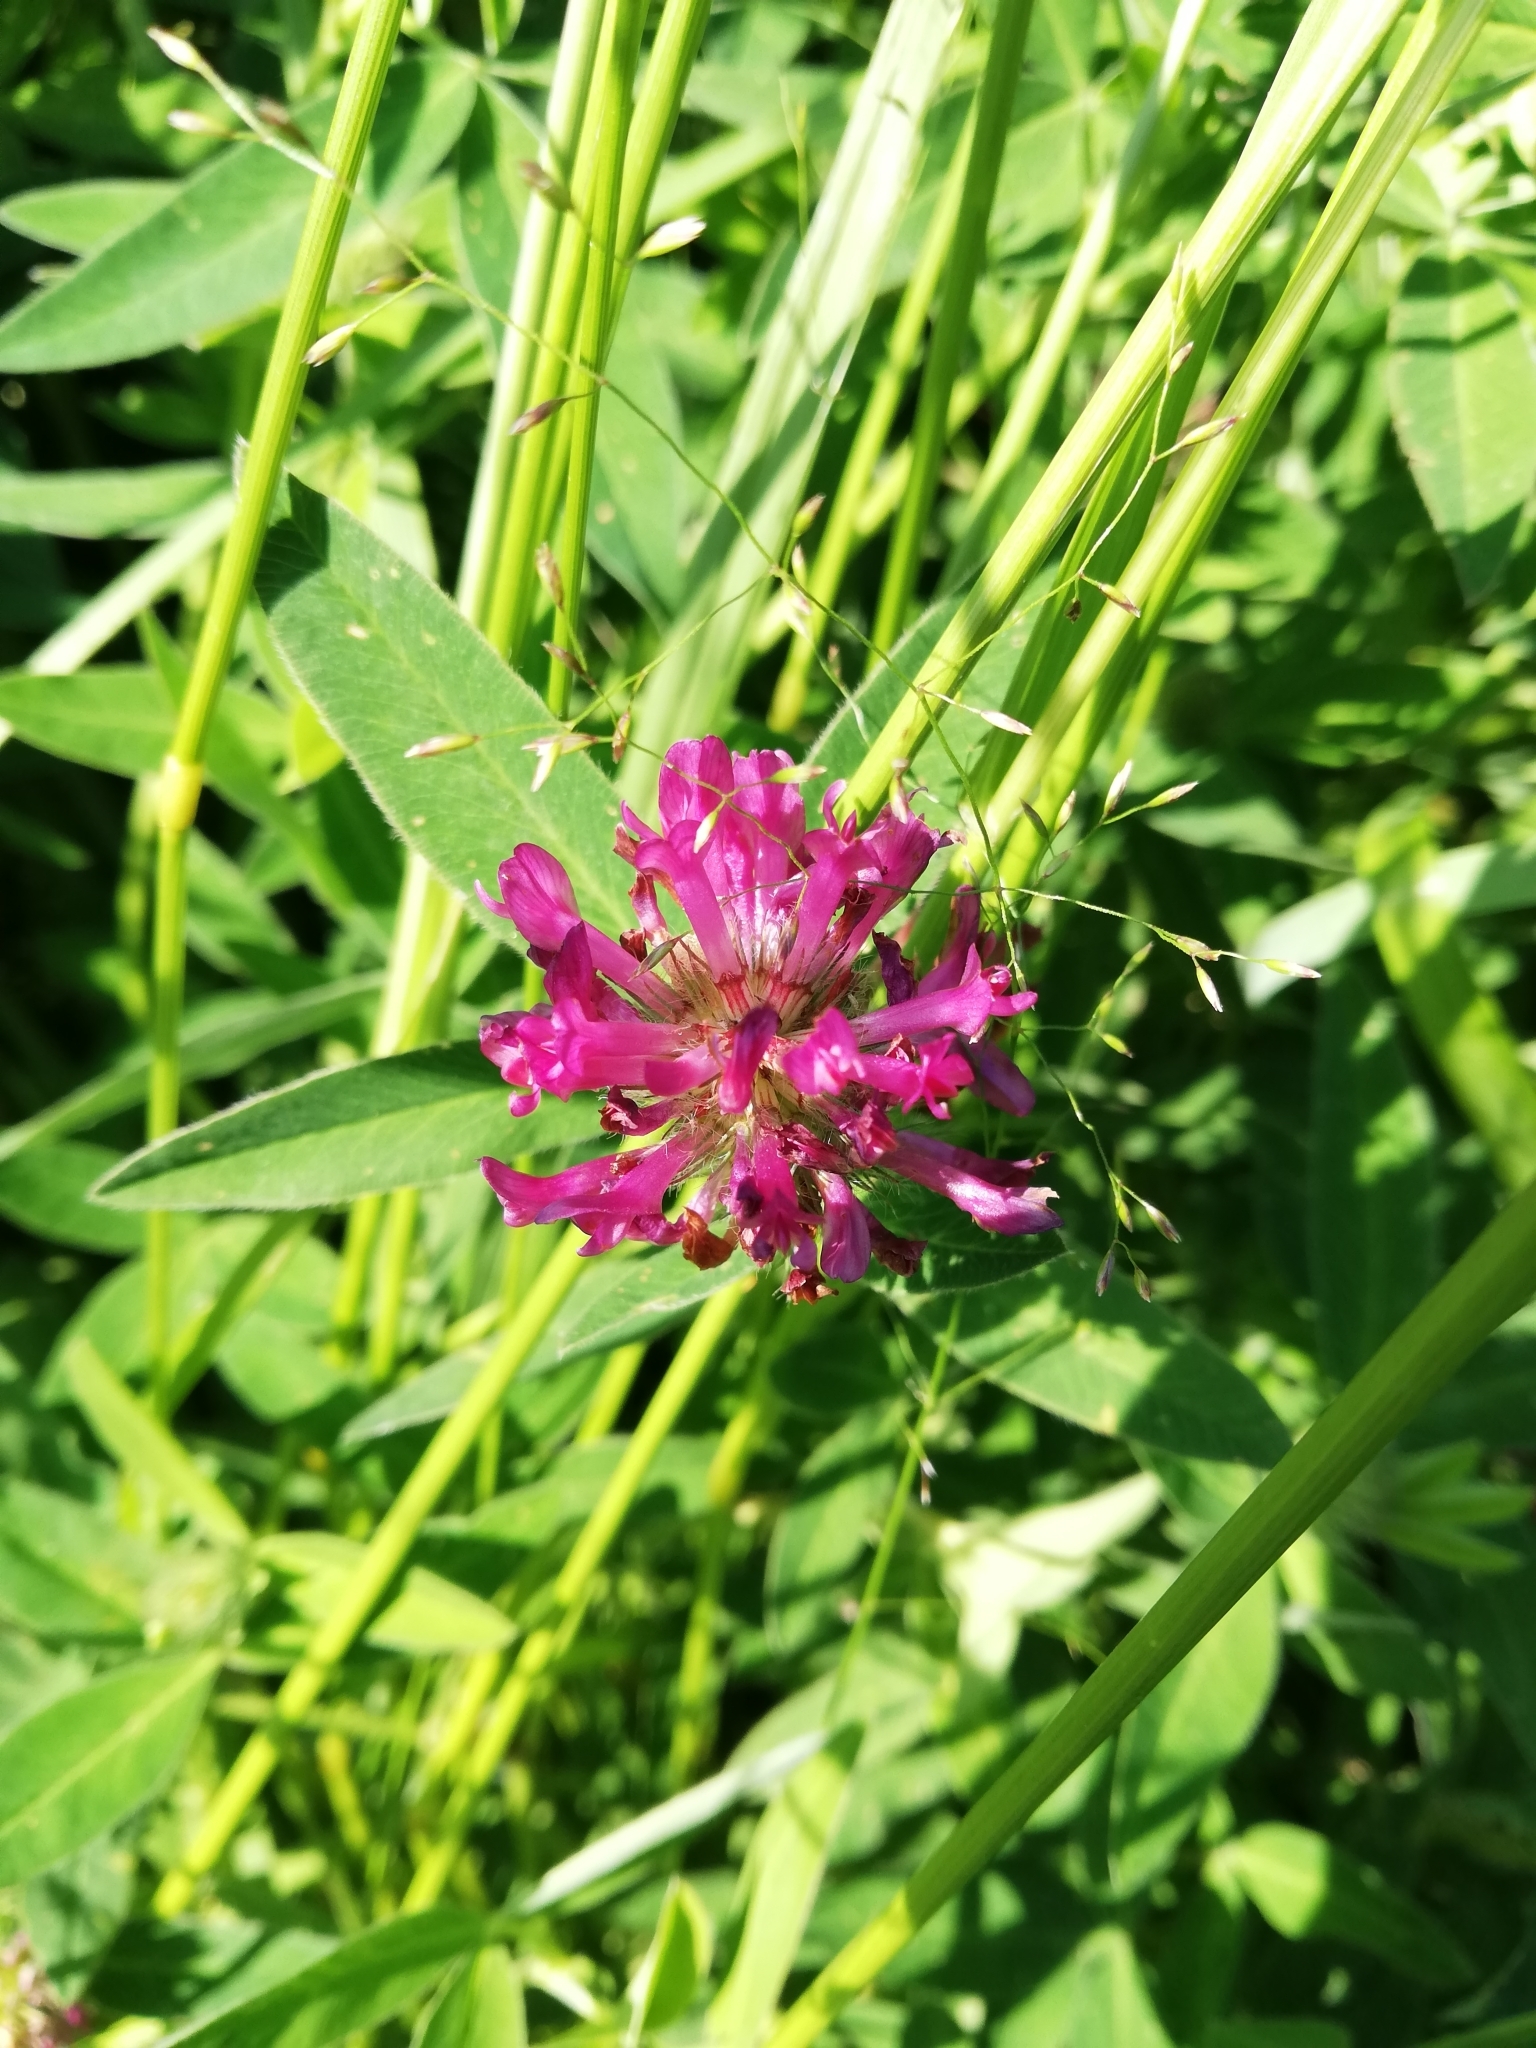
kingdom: Plantae
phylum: Tracheophyta
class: Magnoliopsida
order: Fabales
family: Fabaceae
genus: Trifolium
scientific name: Trifolium medium
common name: Zigzag clover
